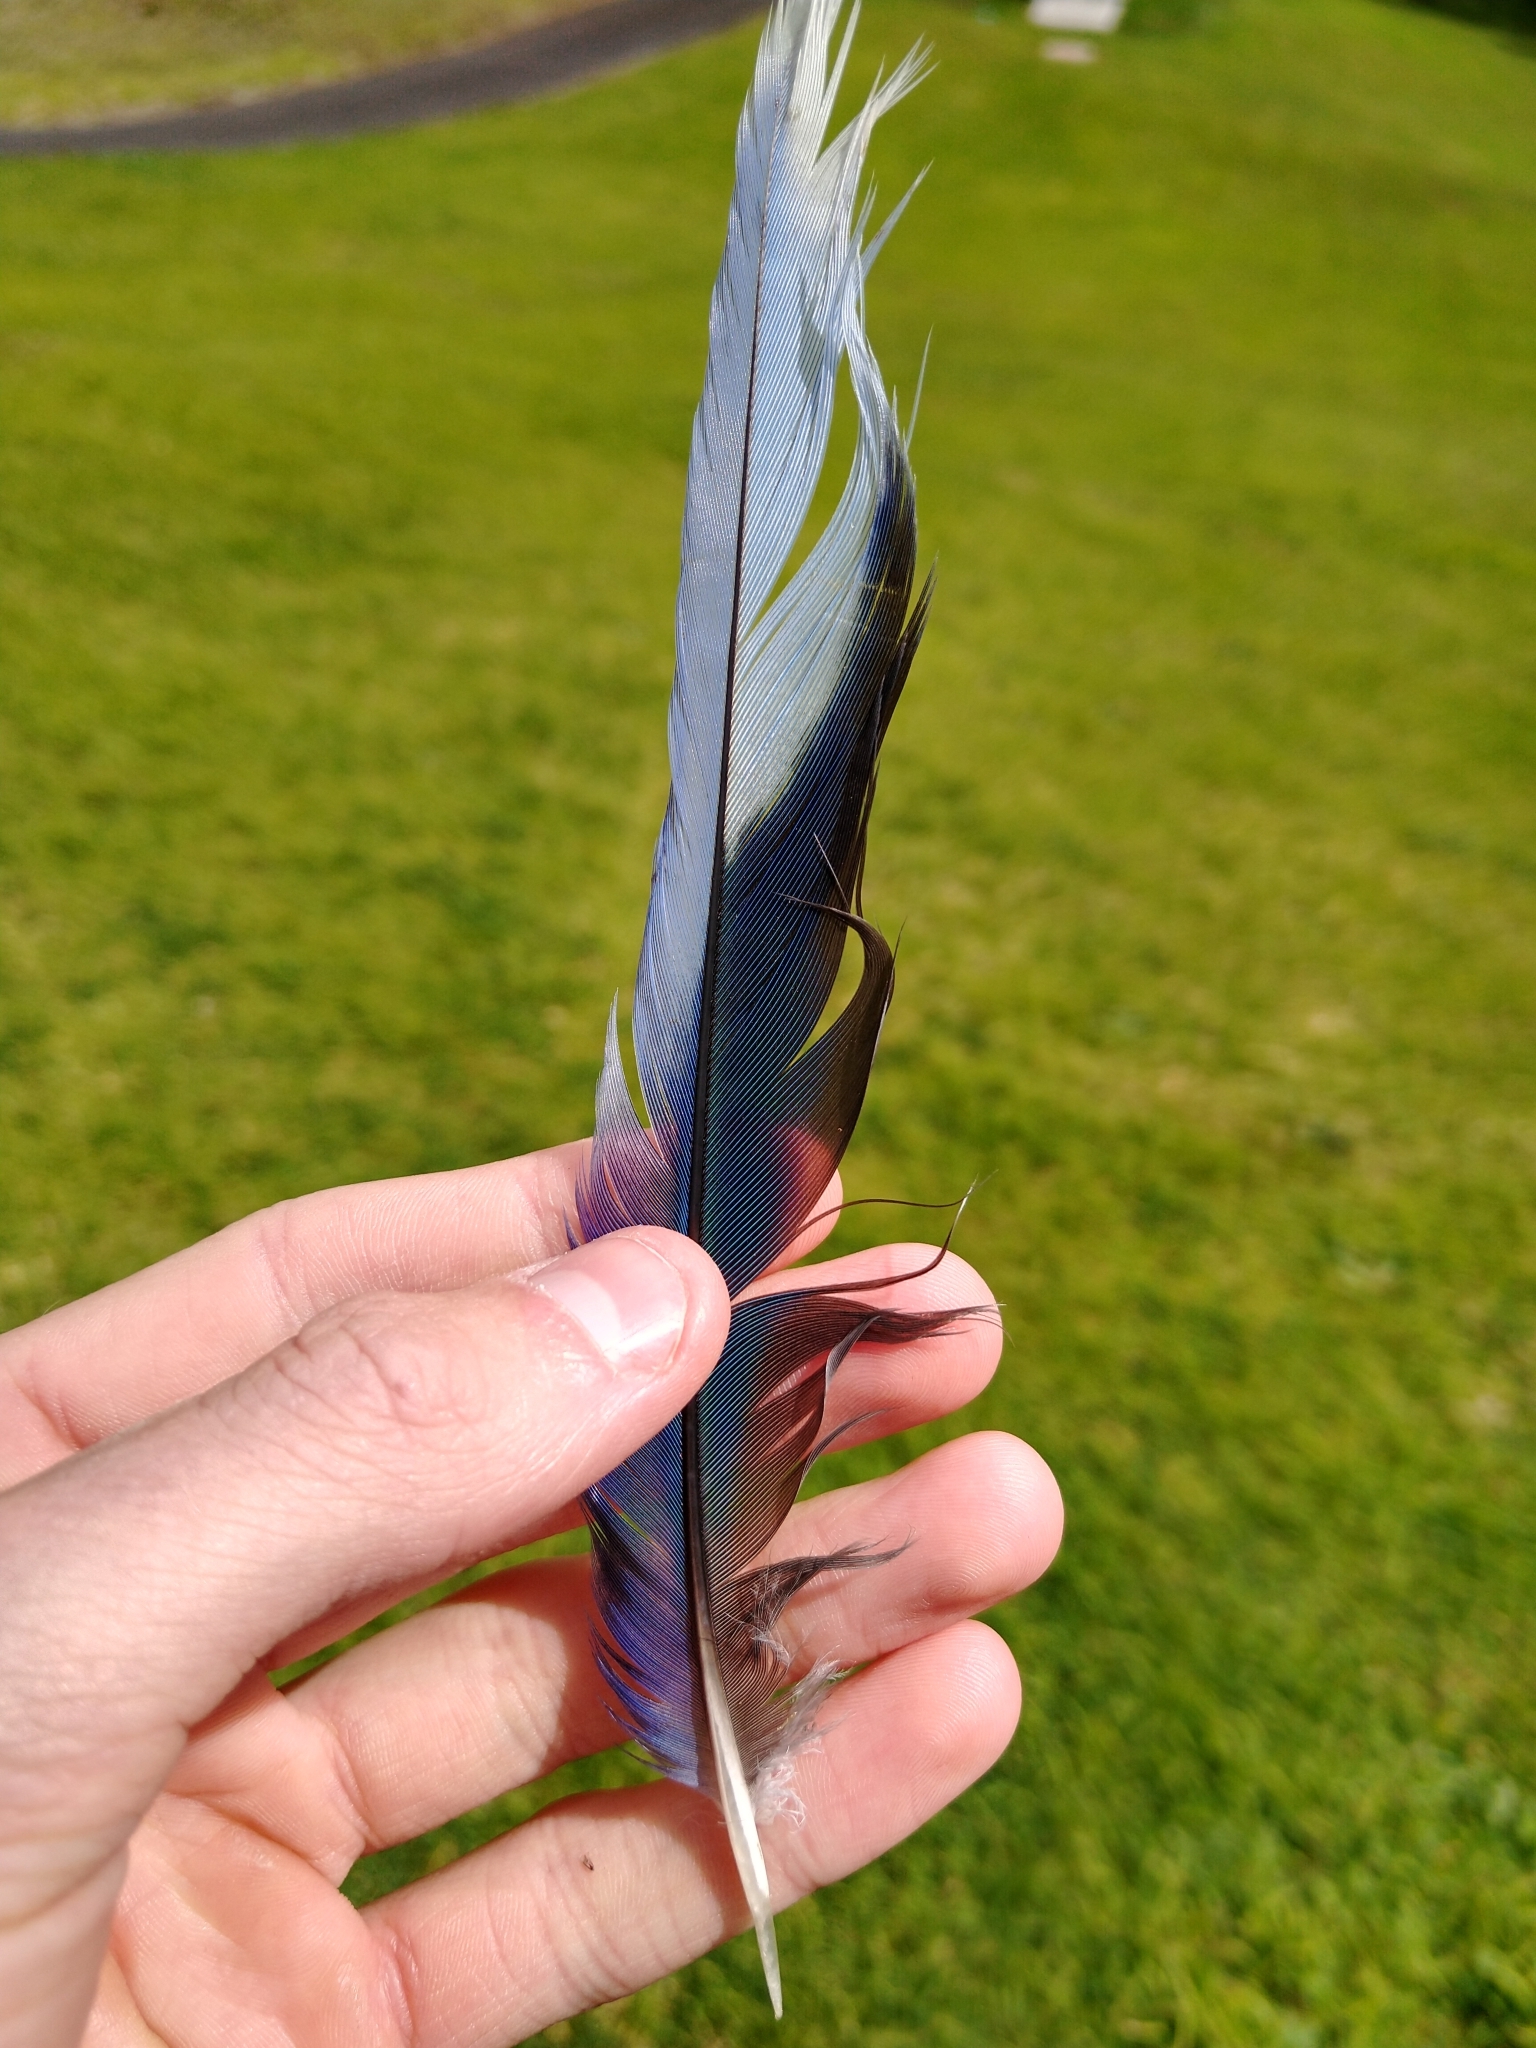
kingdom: Animalia
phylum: Chordata
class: Aves
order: Psittaciformes
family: Psittacidae
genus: Platycercus
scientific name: Platycercus eximius
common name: Eastern rosella
